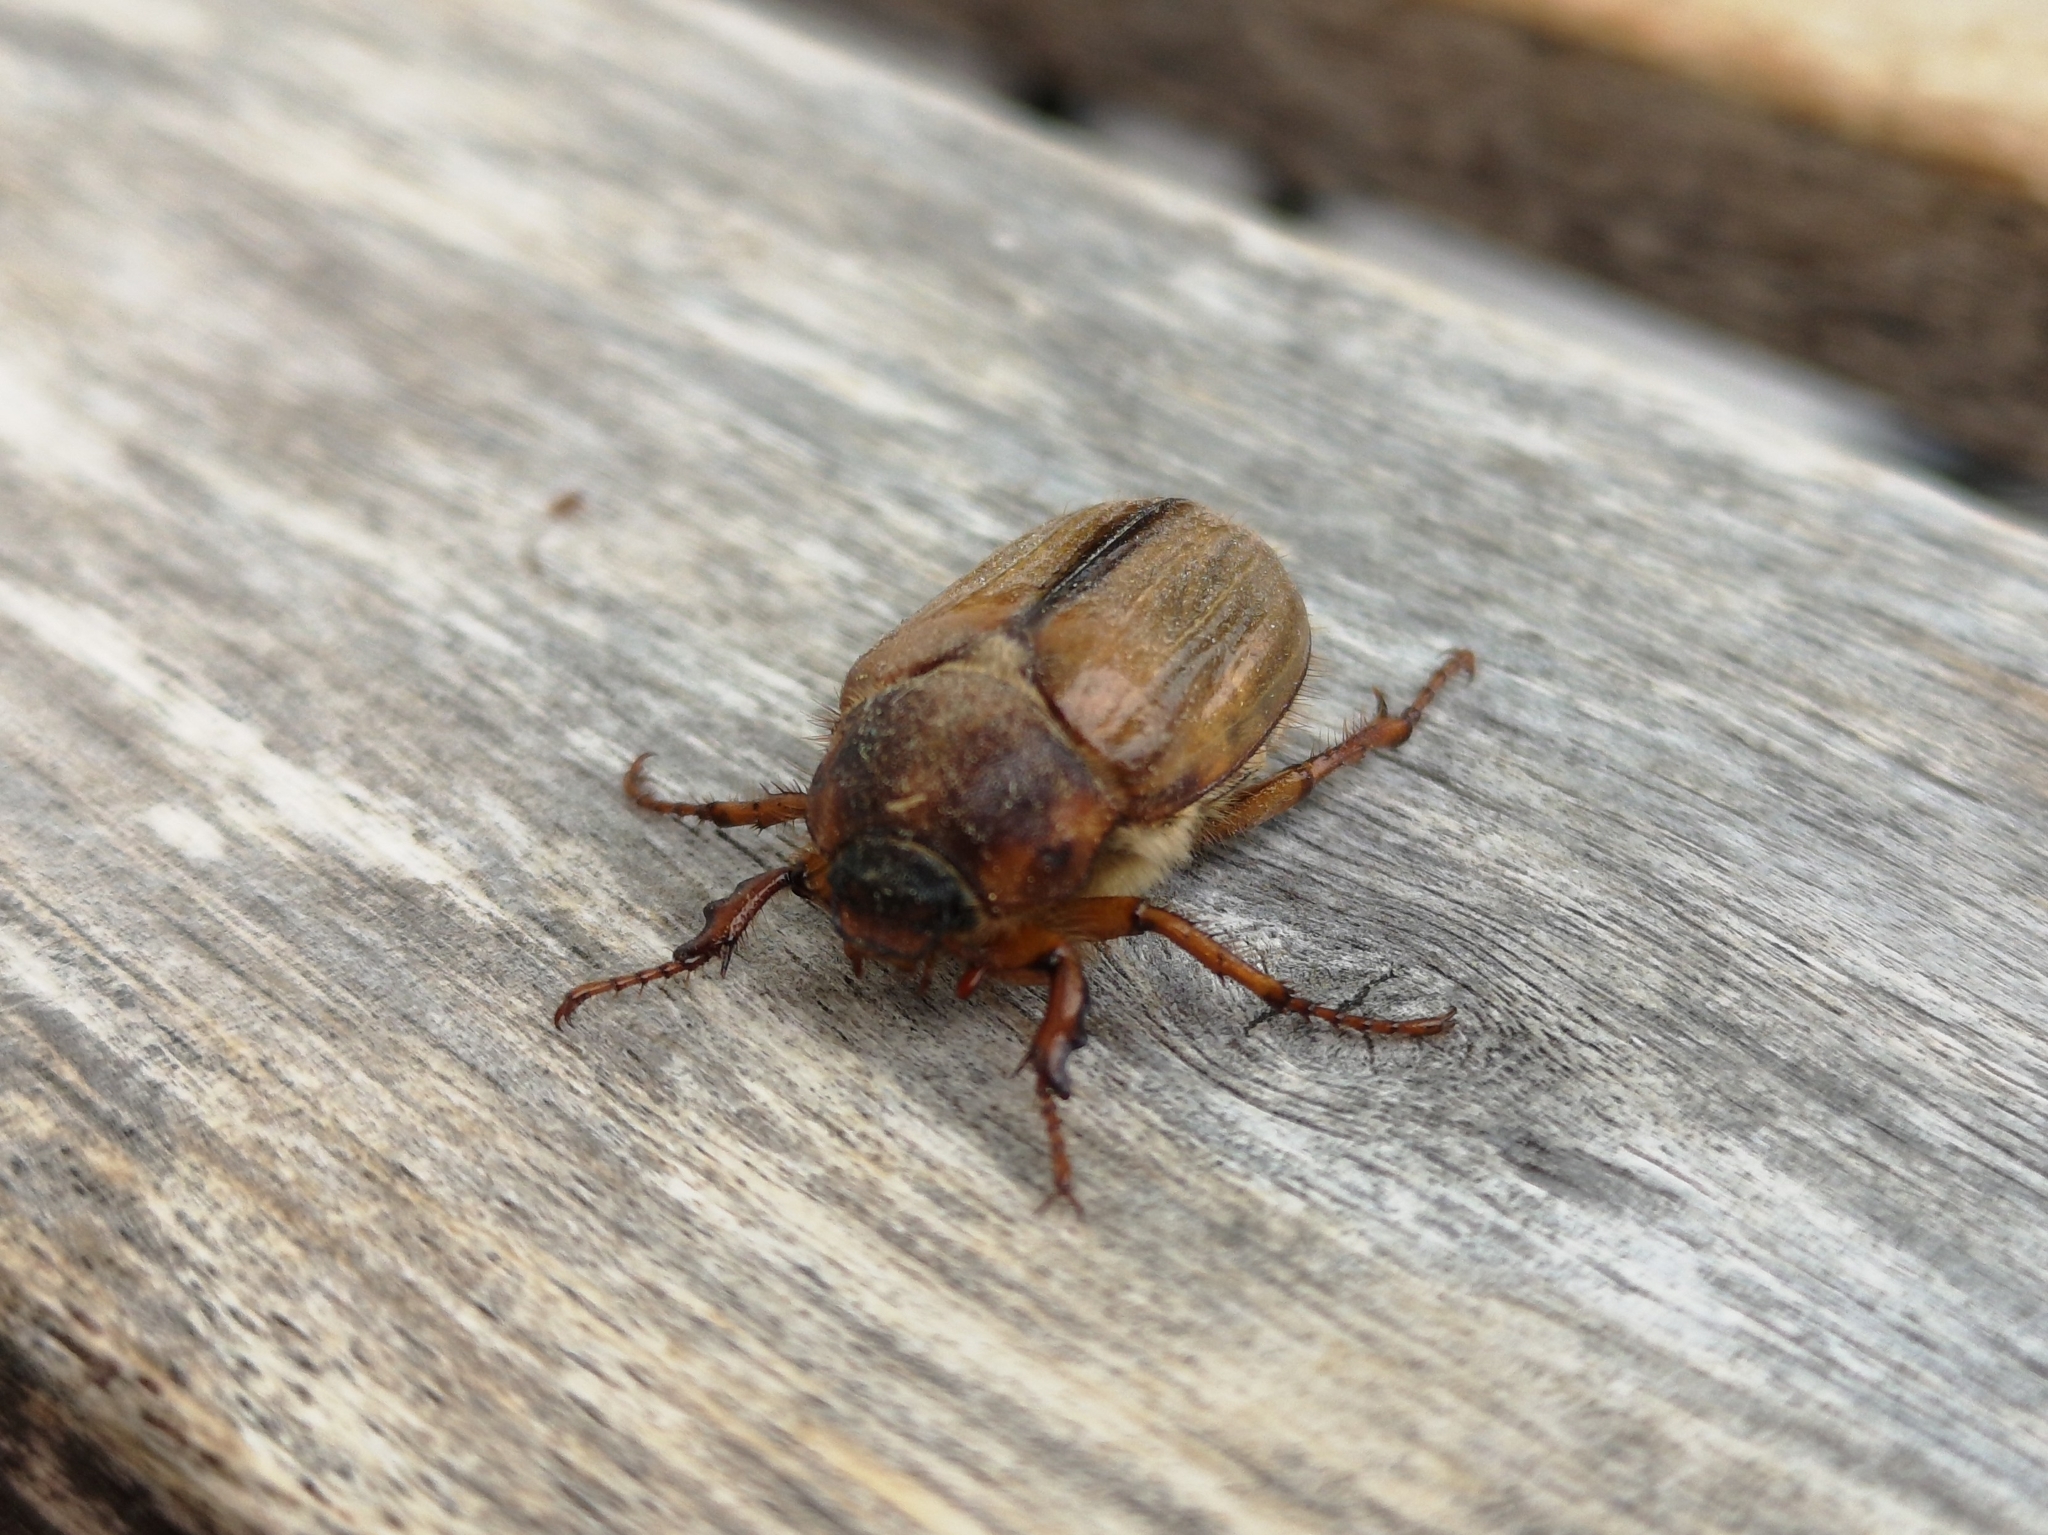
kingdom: Animalia
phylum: Arthropoda
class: Insecta
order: Coleoptera
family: Scarabaeidae
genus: Amphimallon
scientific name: Amphimallon solstitiale
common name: Summer chafer
